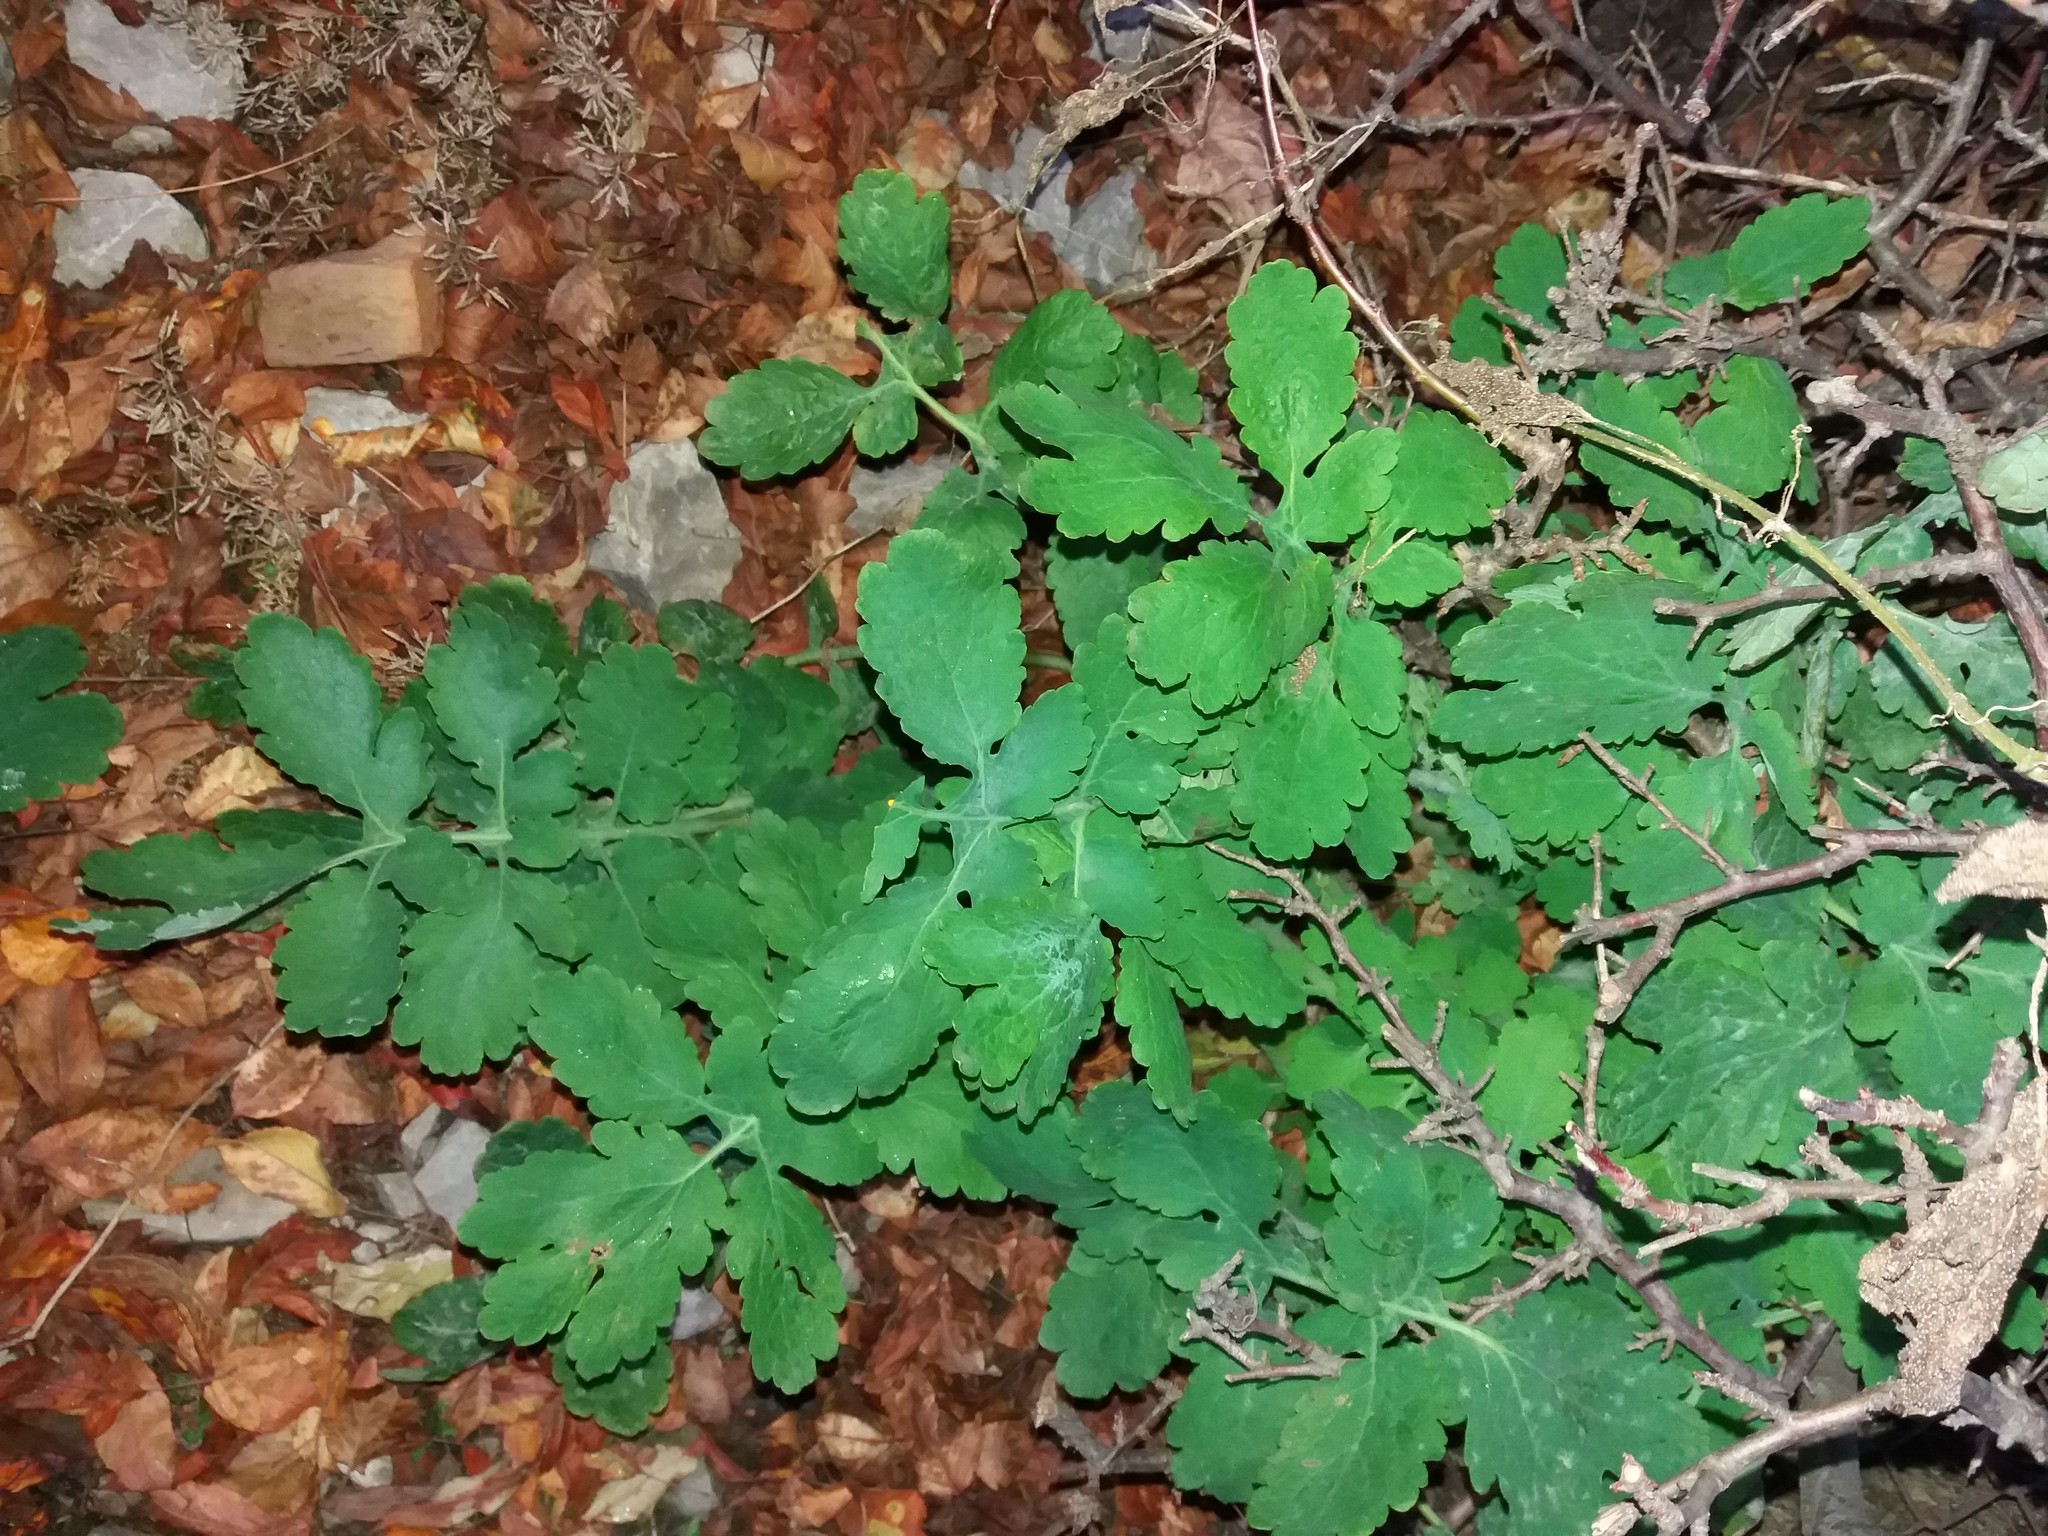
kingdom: Plantae
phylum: Tracheophyta
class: Magnoliopsida
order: Ranunculales
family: Papaveraceae
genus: Chelidonium
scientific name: Chelidonium majus
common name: Greater celandine
